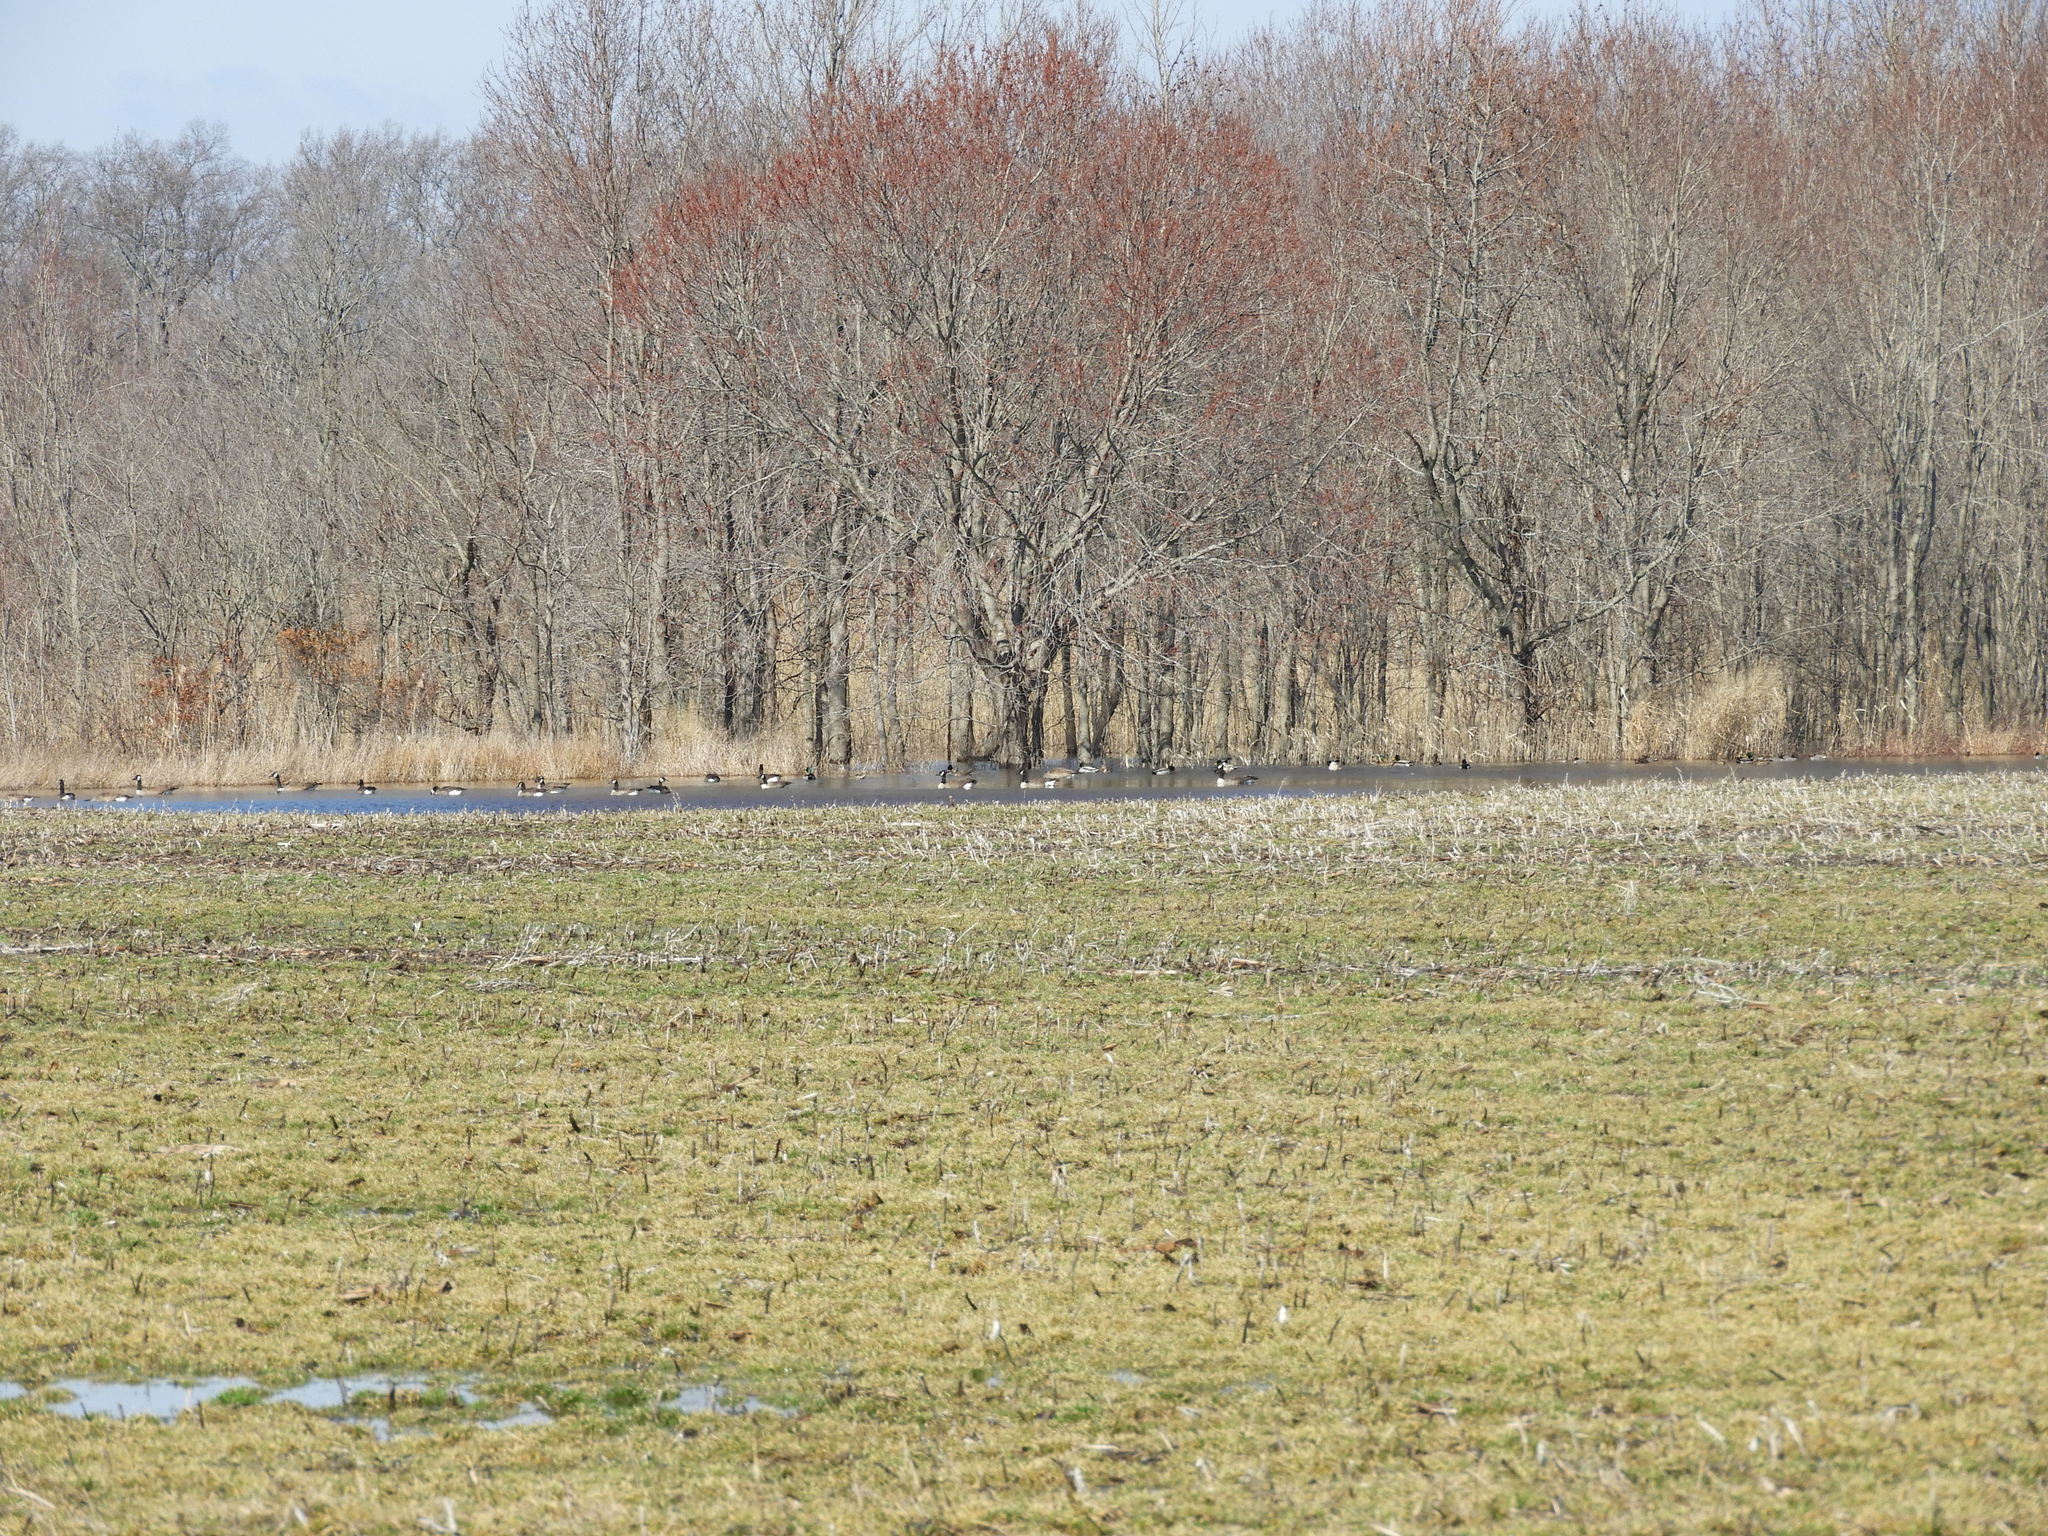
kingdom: Animalia
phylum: Chordata
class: Aves
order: Anseriformes
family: Anatidae
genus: Anas
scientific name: Anas platyrhynchos
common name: Mallard
